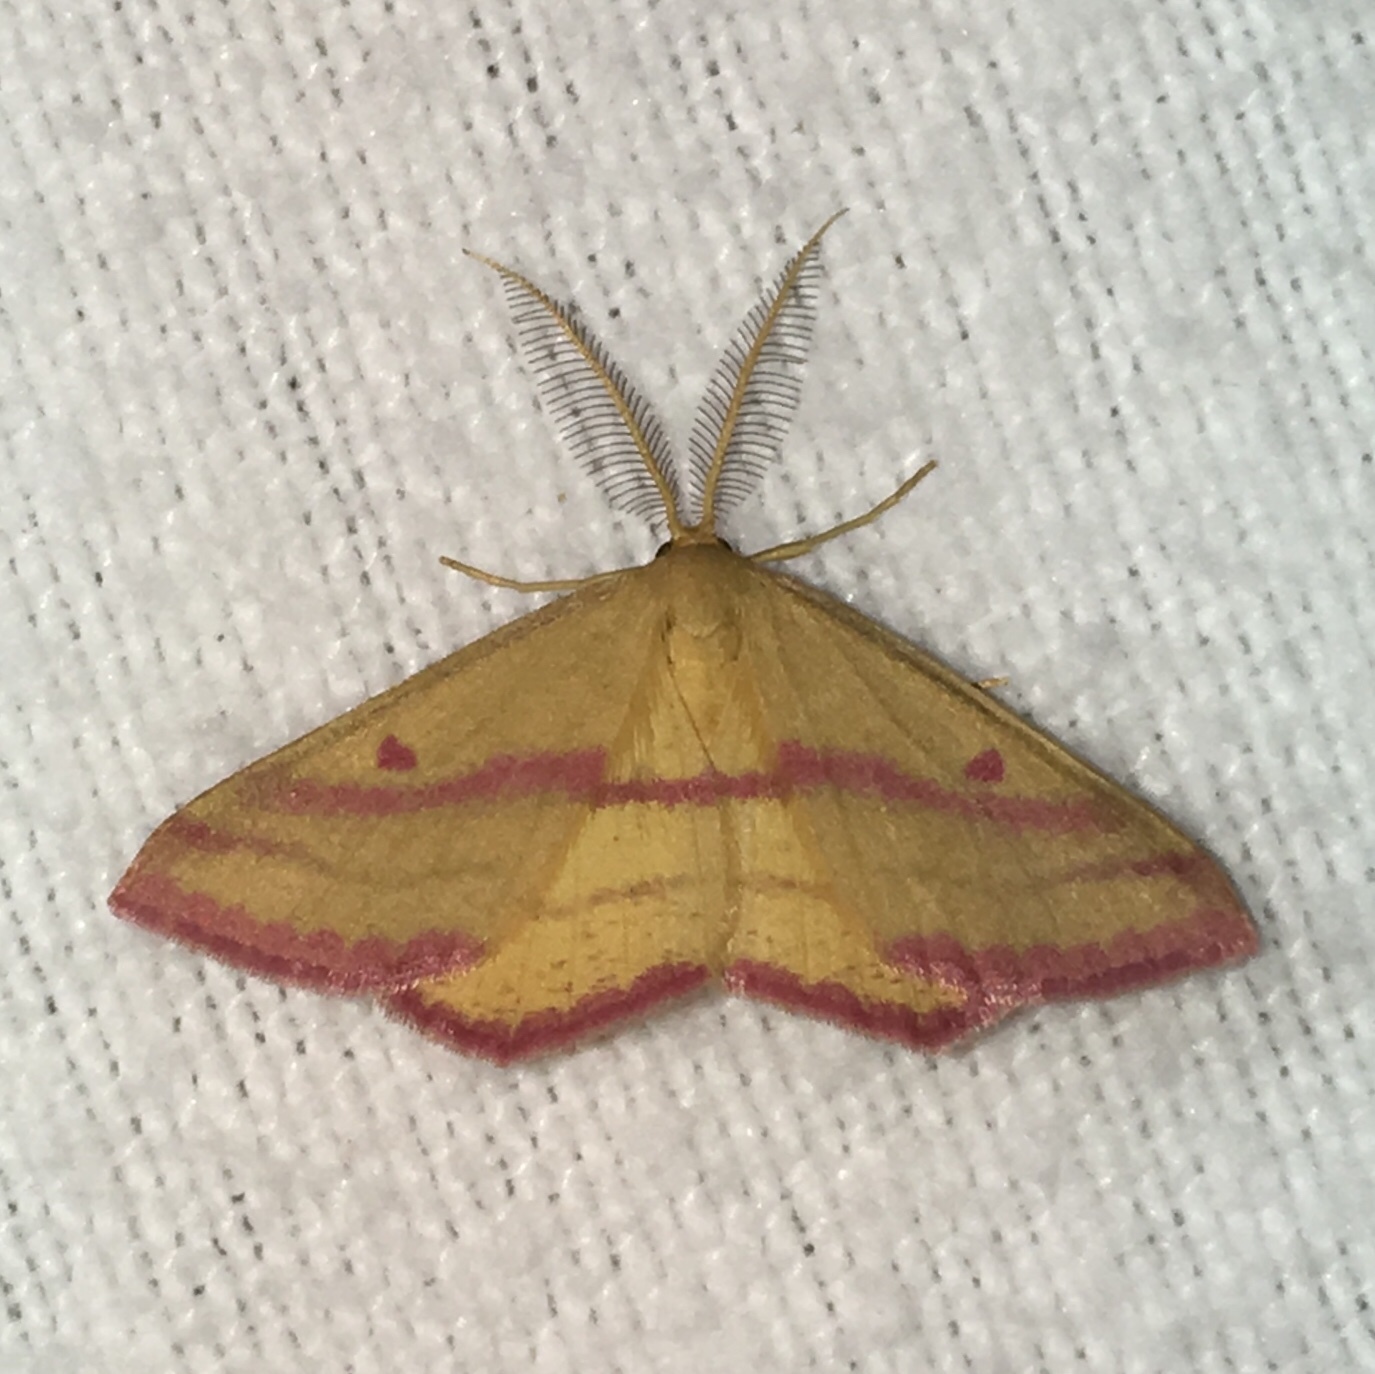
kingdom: Animalia
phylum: Arthropoda
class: Insecta
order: Lepidoptera
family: Geometridae
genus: Haematopis
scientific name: Haematopis grataria
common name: Chickweed geometer
